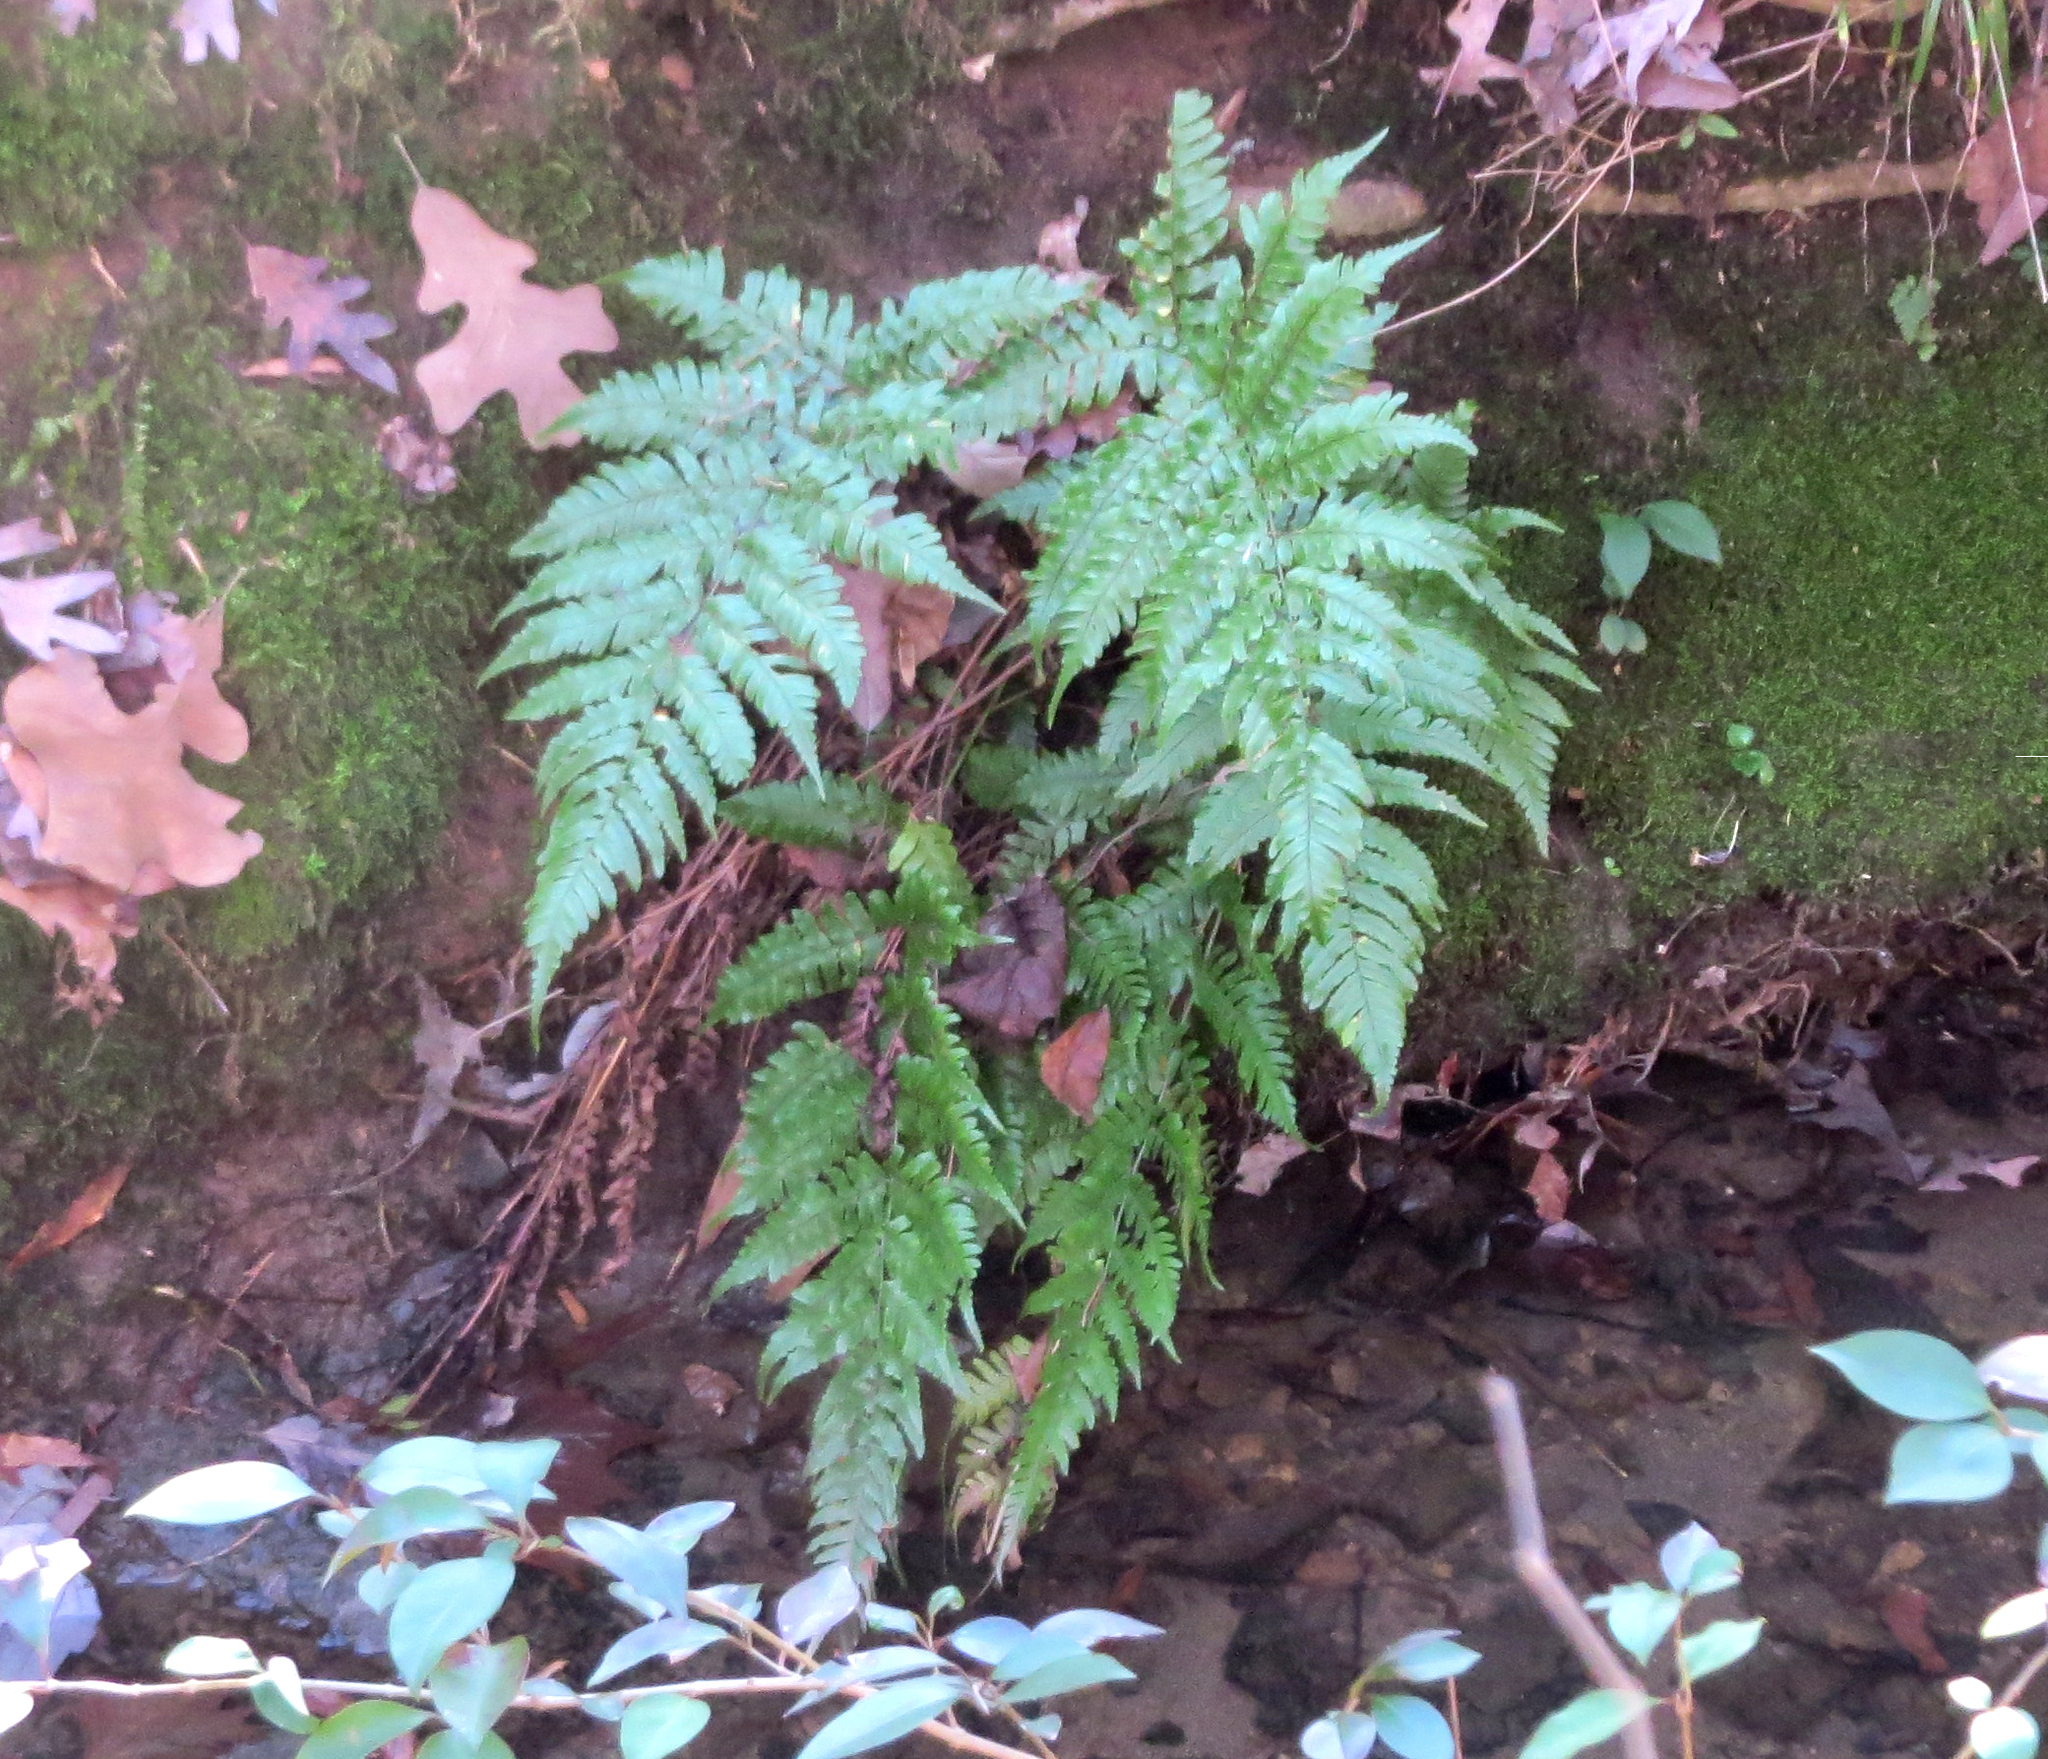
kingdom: Plantae
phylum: Tracheophyta
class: Polypodiopsida
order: Polypodiales
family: Dryopteridaceae
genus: Dryopteris
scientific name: Dryopteris erythrosora
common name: Autumn fern
